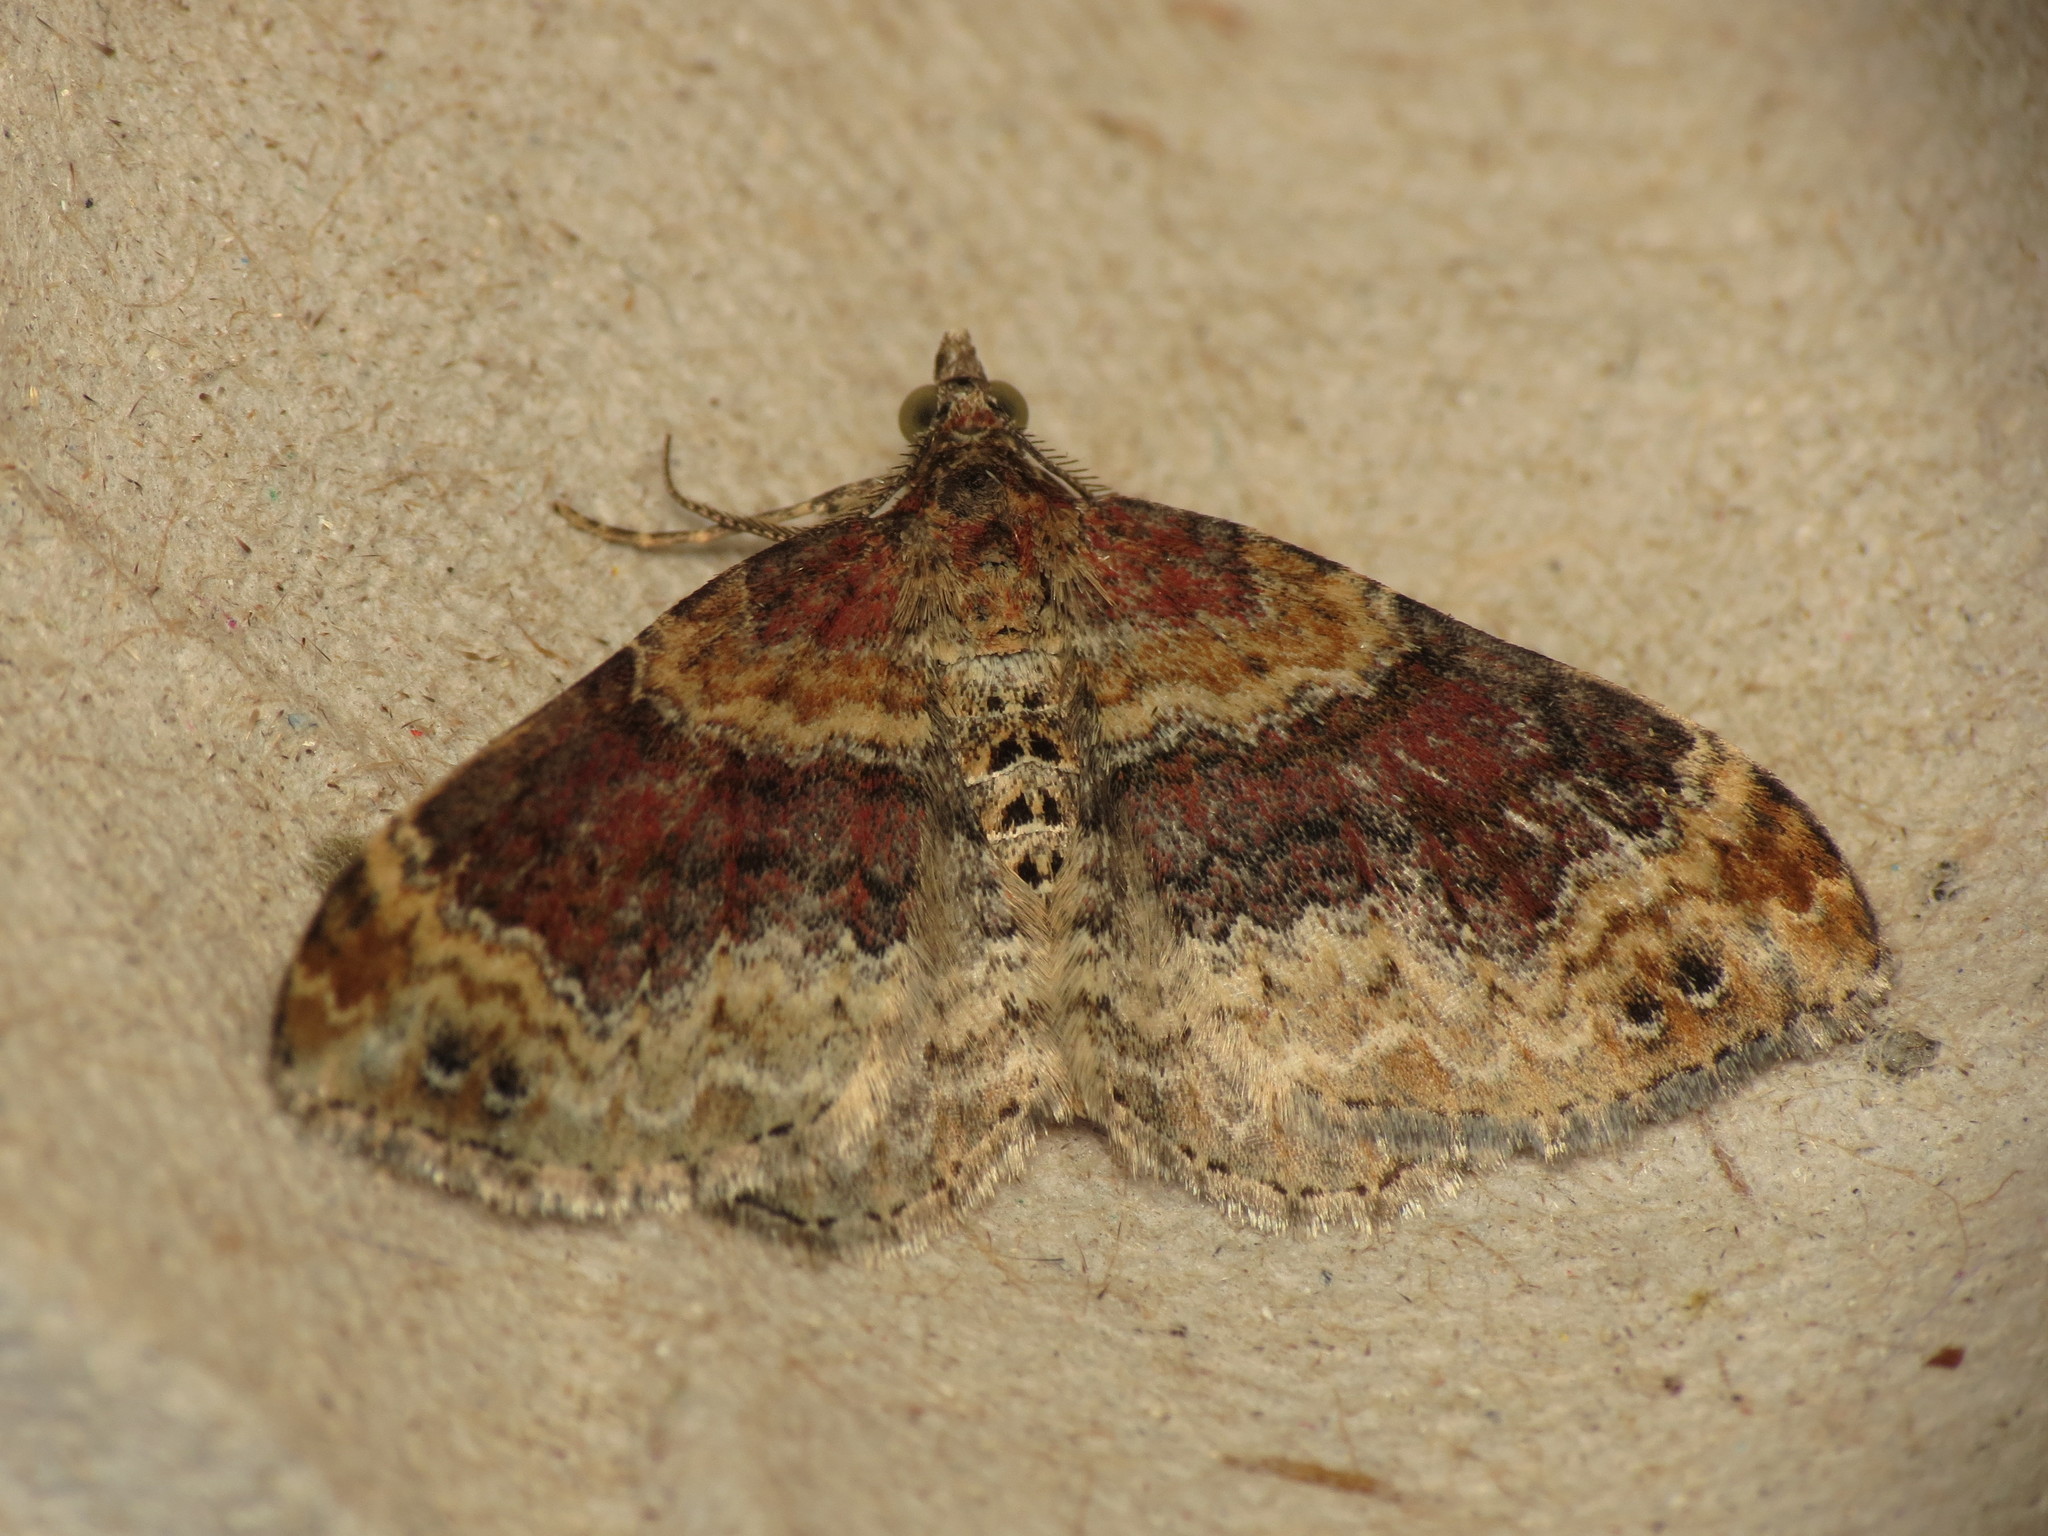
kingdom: Animalia
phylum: Arthropoda
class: Insecta
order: Lepidoptera
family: Geometridae
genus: Xanthorhoe
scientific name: Xanthorhoe spadicearia
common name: Red twin-spot carpet
